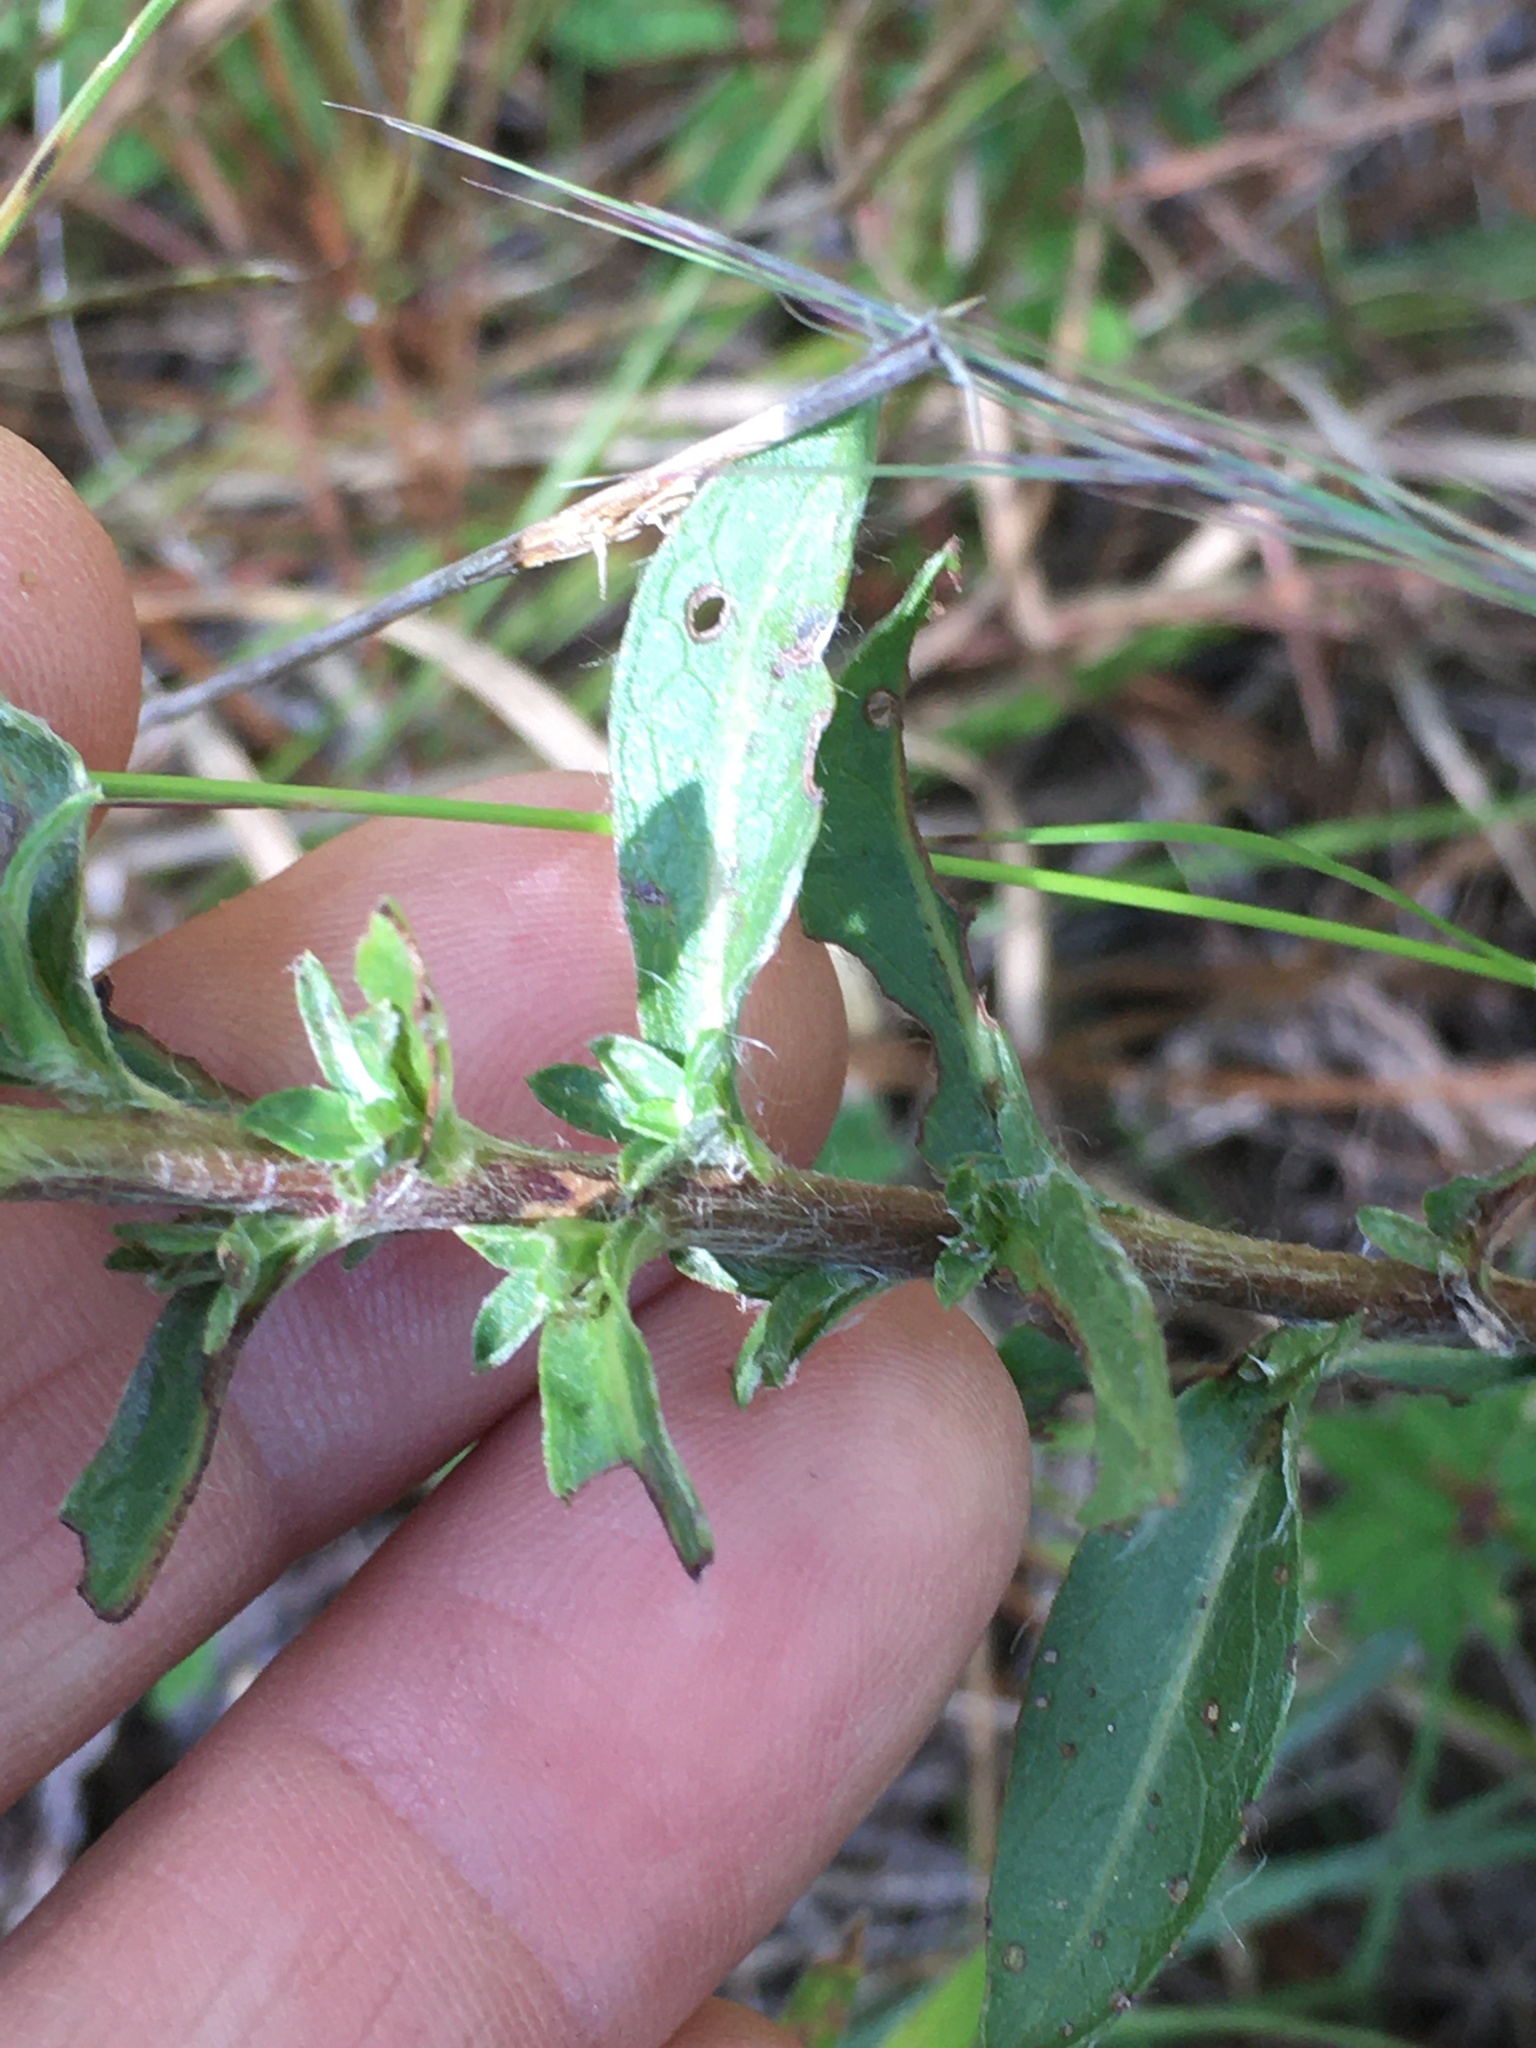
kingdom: Plantae
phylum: Tracheophyta
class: Magnoliopsida
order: Asterales
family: Asteraceae
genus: Chrysopsis
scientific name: Chrysopsis mariana
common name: Maryland golden-aster
